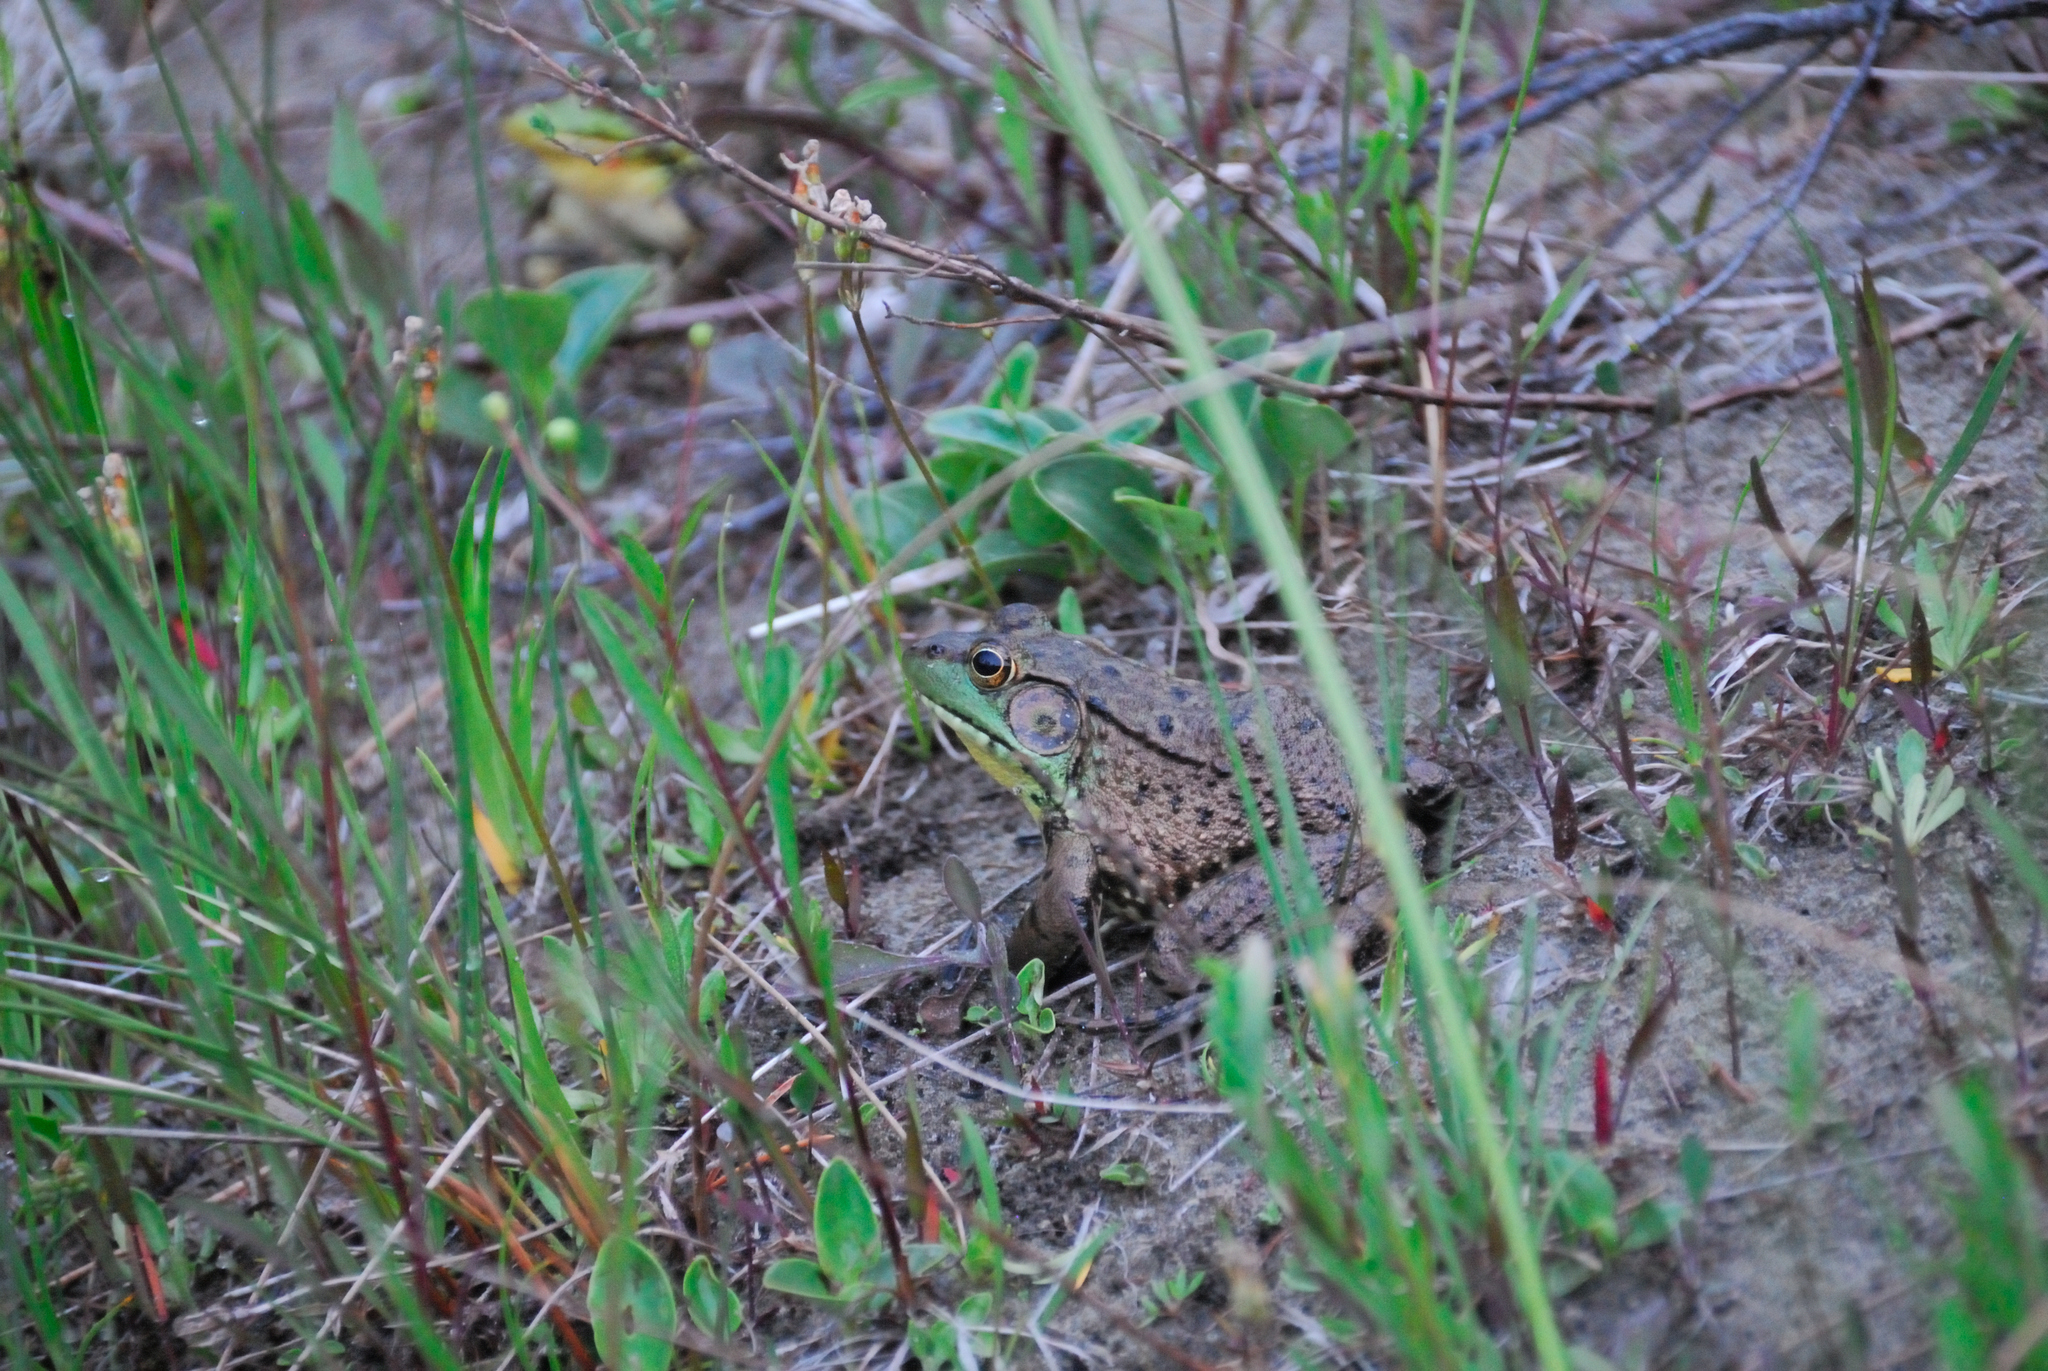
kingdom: Animalia
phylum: Chordata
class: Amphibia
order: Anura
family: Ranidae
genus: Lithobates
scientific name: Lithobates clamitans
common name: Green frog
